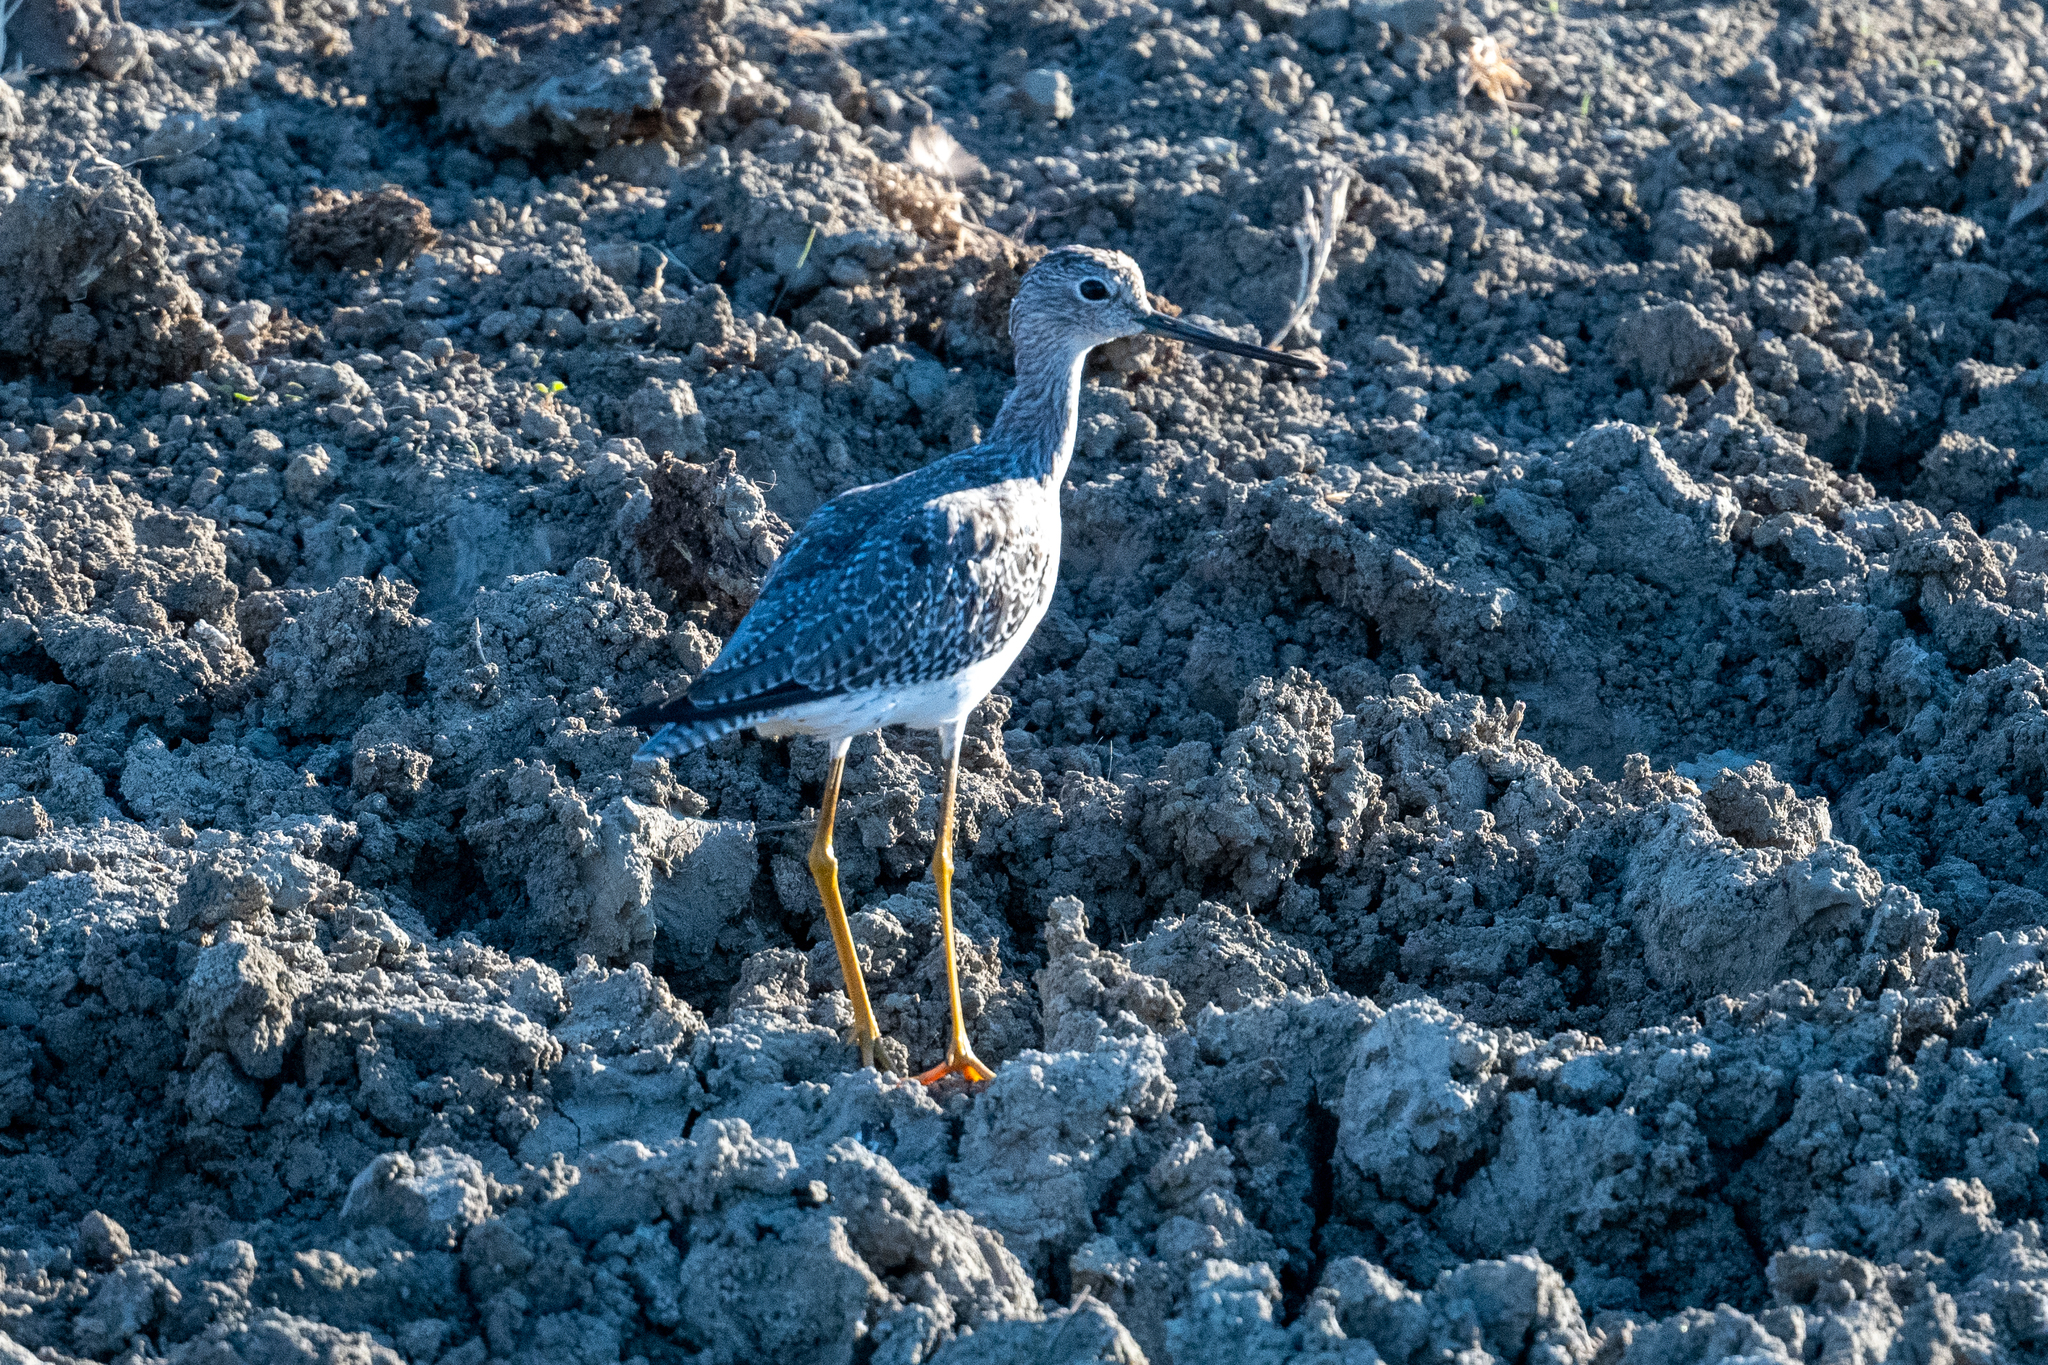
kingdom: Animalia
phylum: Chordata
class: Aves
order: Charadriiformes
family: Scolopacidae
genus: Tringa
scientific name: Tringa melanoleuca
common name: Greater yellowlegs
